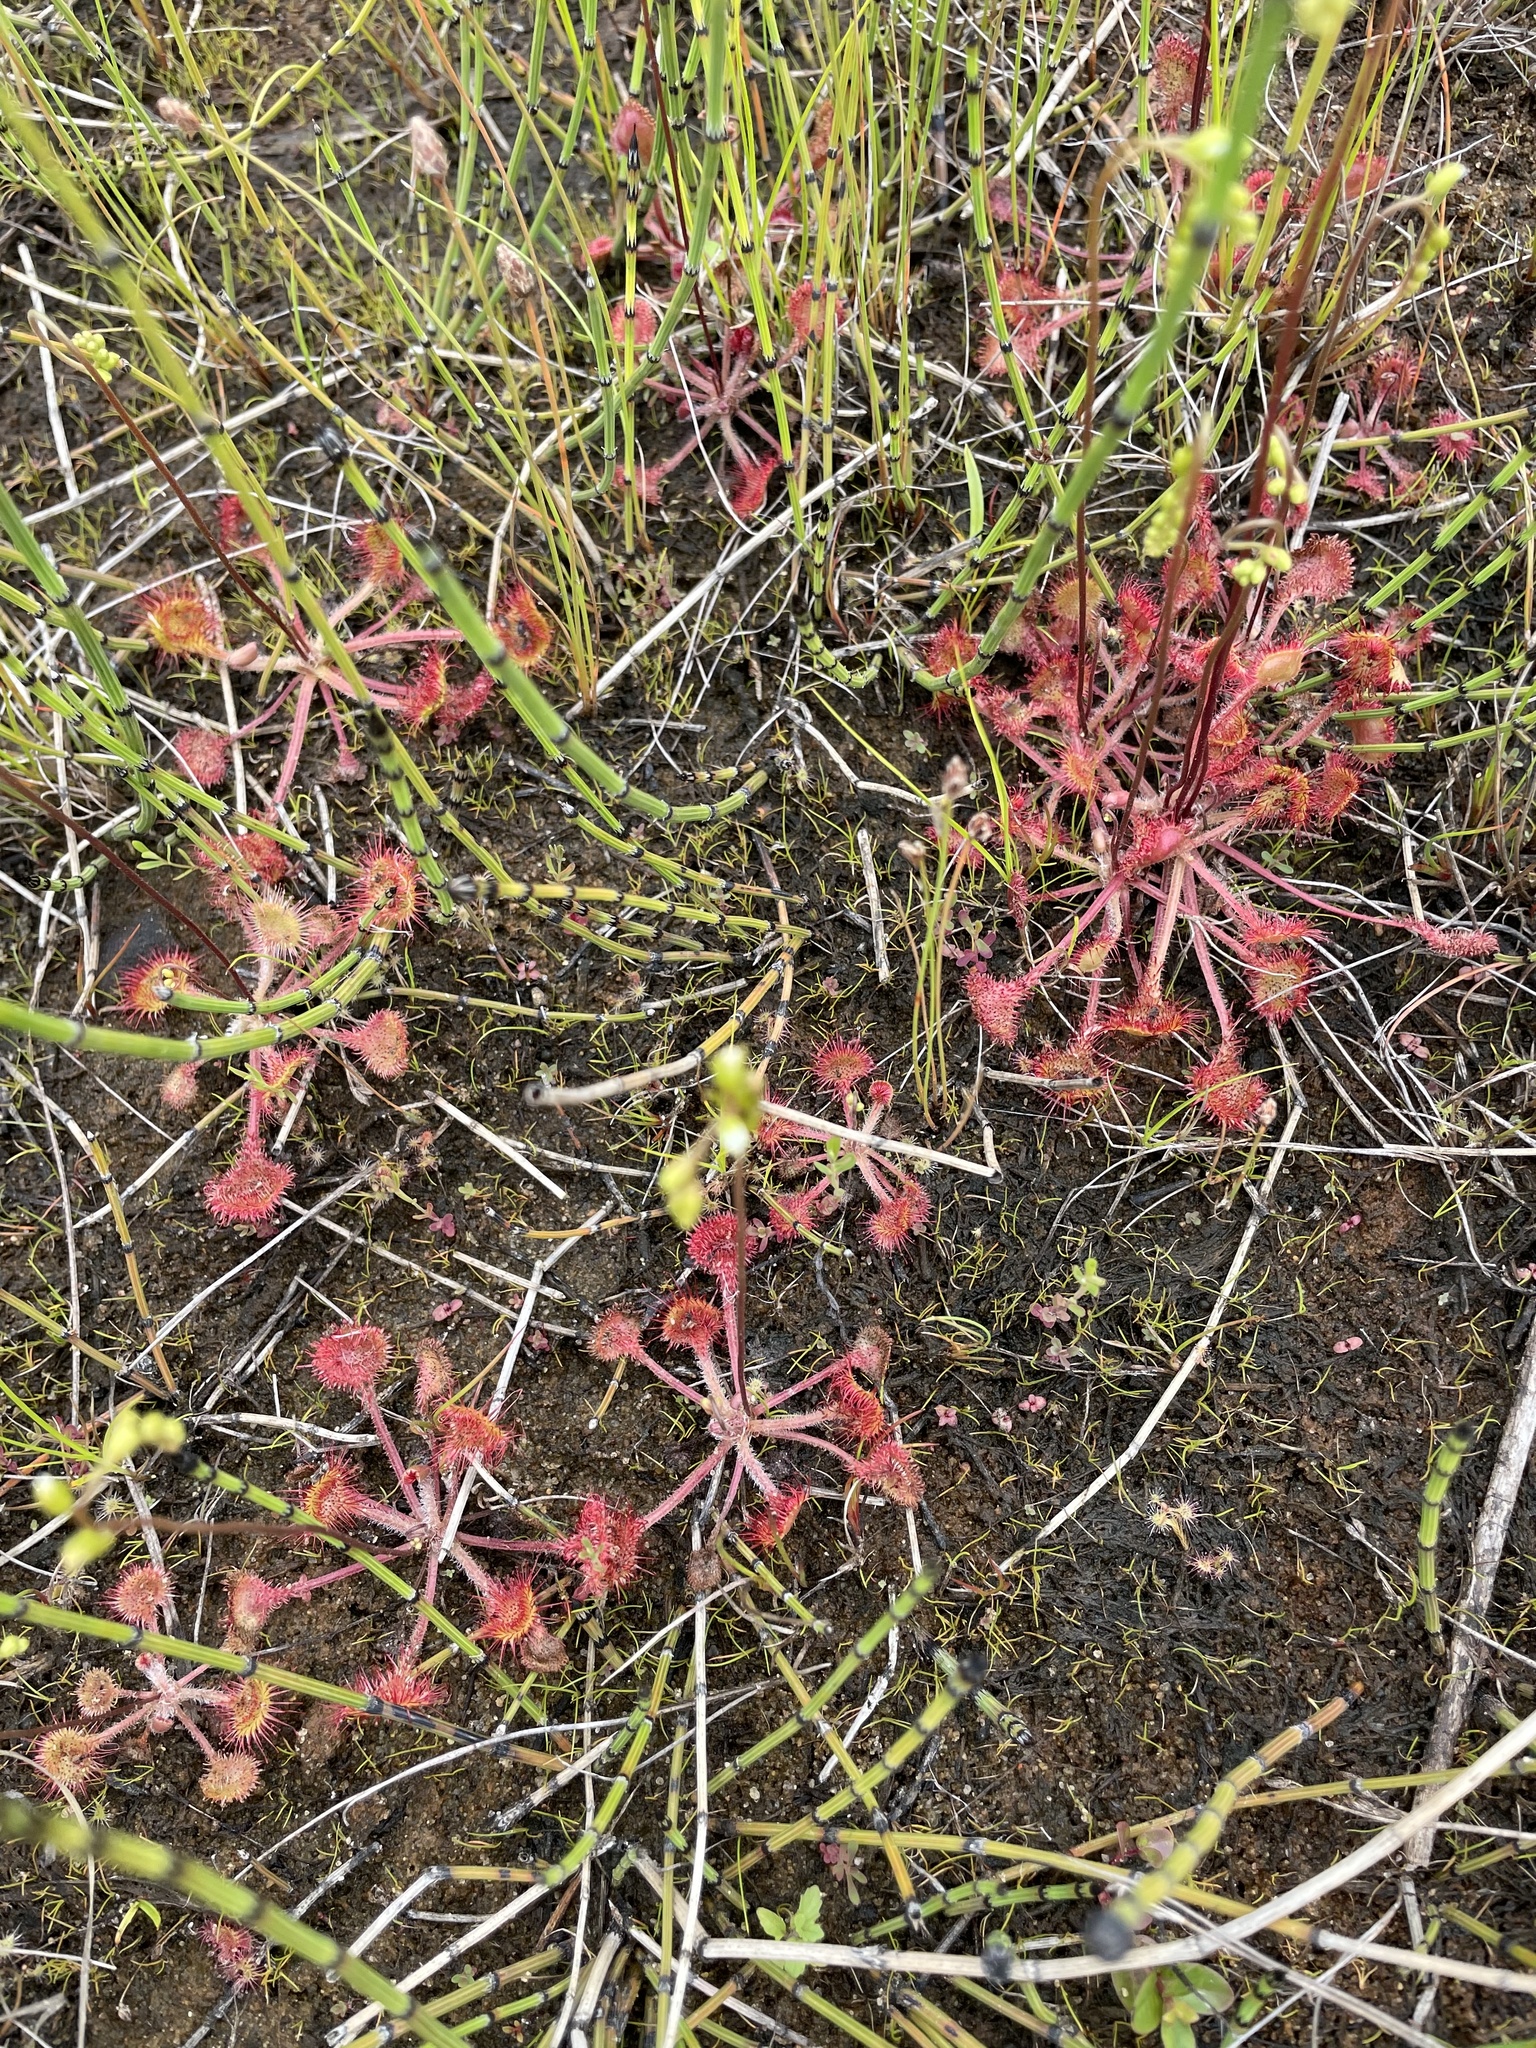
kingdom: Plantae
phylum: Tracheophyta
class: Magnoliopsida
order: Caryophyllales
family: Droseraceae
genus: Drosera
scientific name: Drosera rotundifolia
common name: Round-leaved sundew
